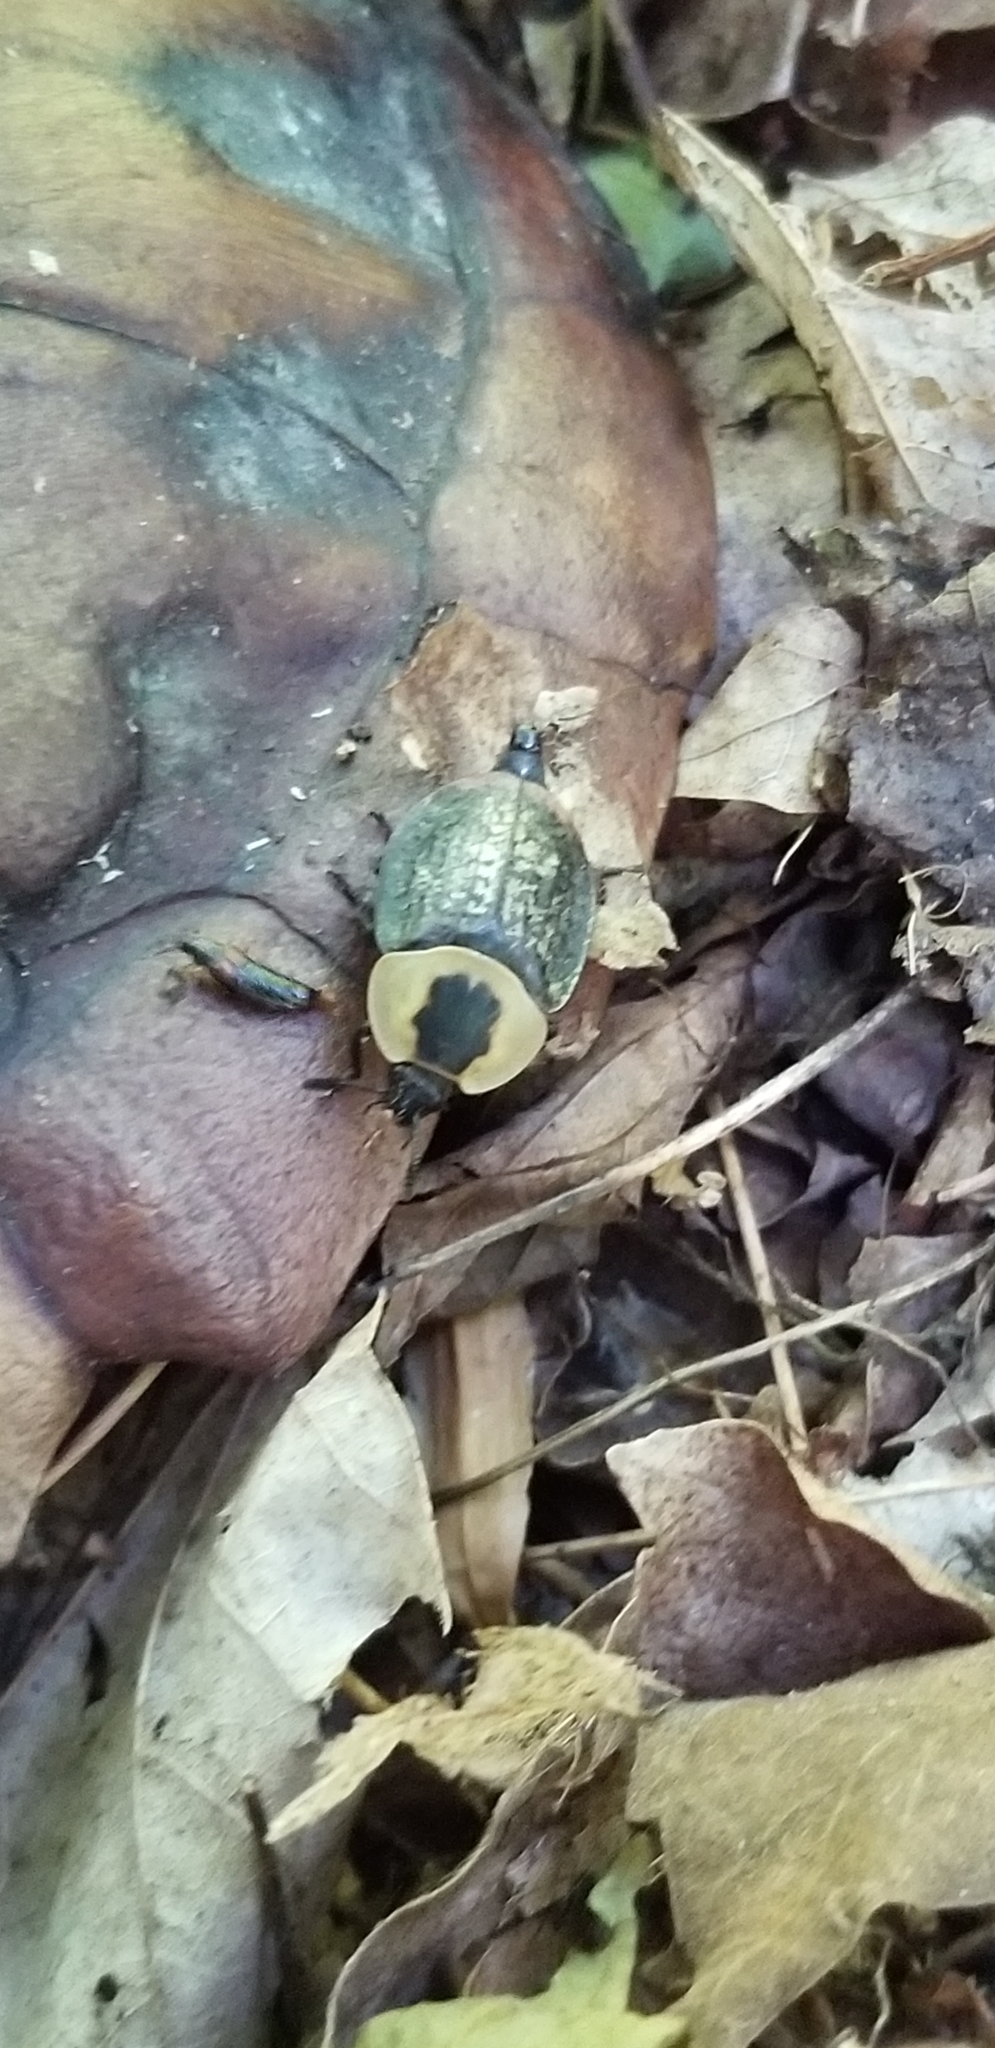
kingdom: Animalia
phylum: Arthropoda
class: Insecta
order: Coleoptera
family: Staphylinidae
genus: Necrophila
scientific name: Necrophila americana
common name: American carrion beetle
